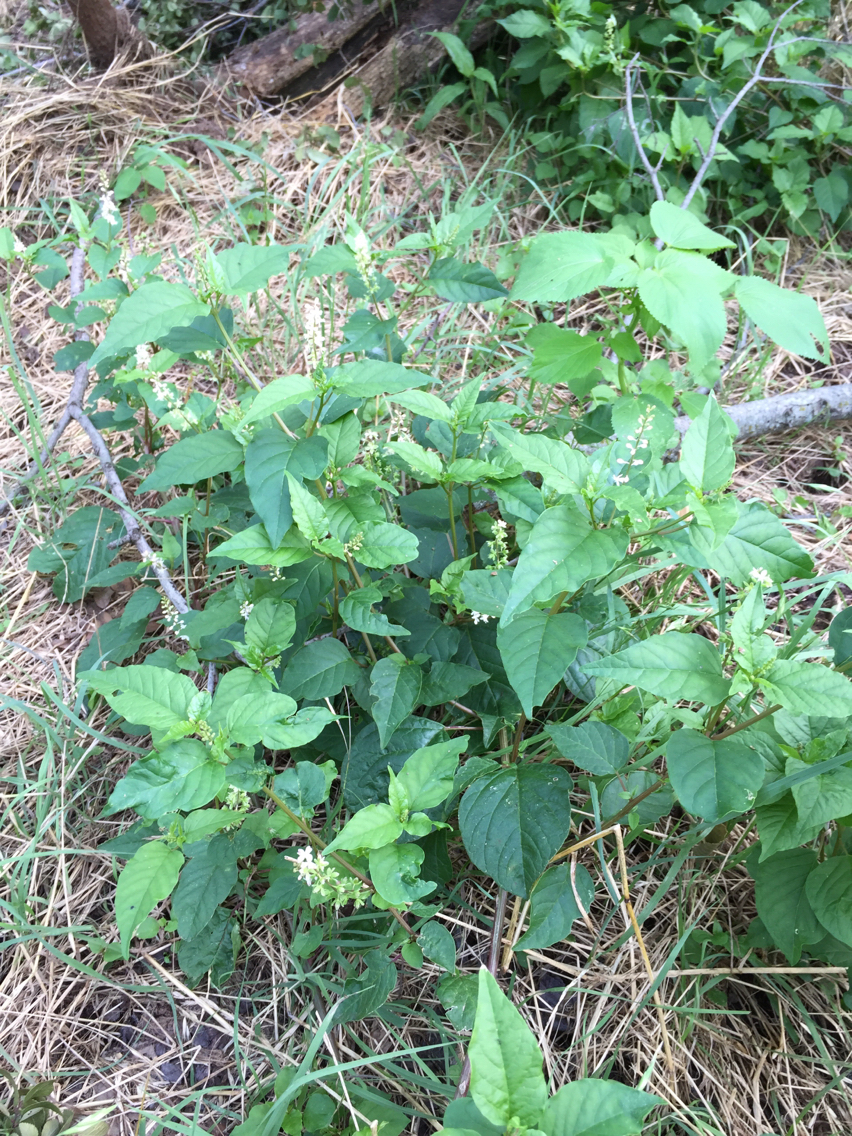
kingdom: Plantae
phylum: Tracheophyta
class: Magnoliopsida
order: Caryophyllales
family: Phytolaccaceae
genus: Rivina
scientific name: Rivina humilis
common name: Rougeplant
